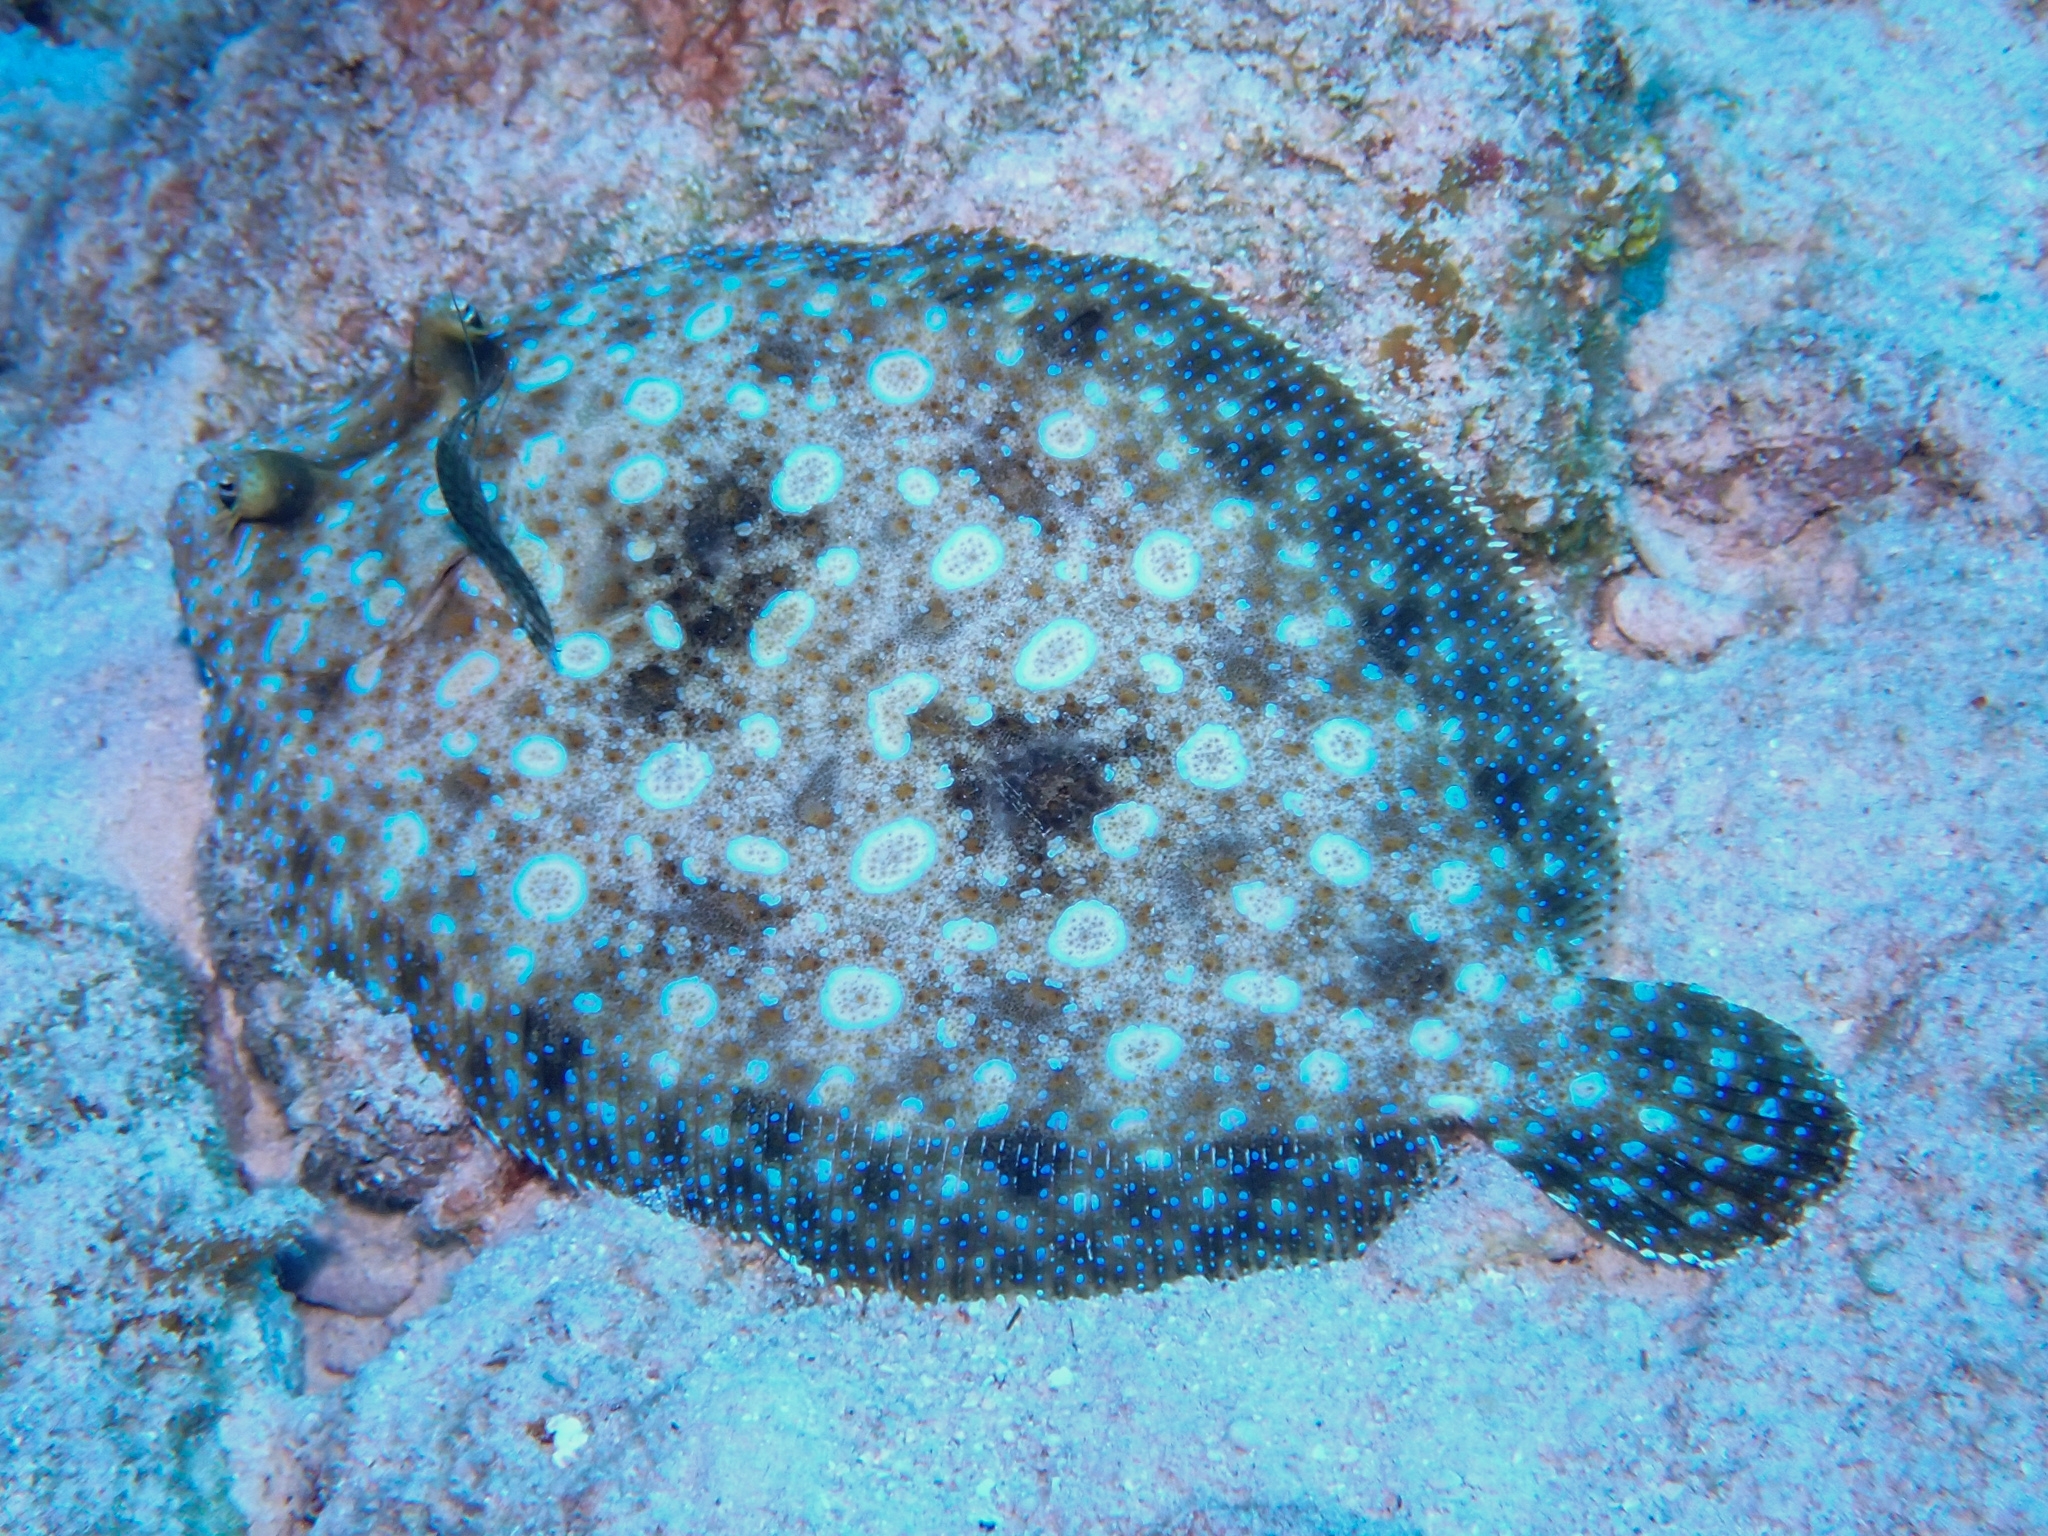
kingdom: Animalia
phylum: Chordata
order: Pleuronectiformes
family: Bothidae
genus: Bothus
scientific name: Bothus lunatus
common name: Peacock flounder
